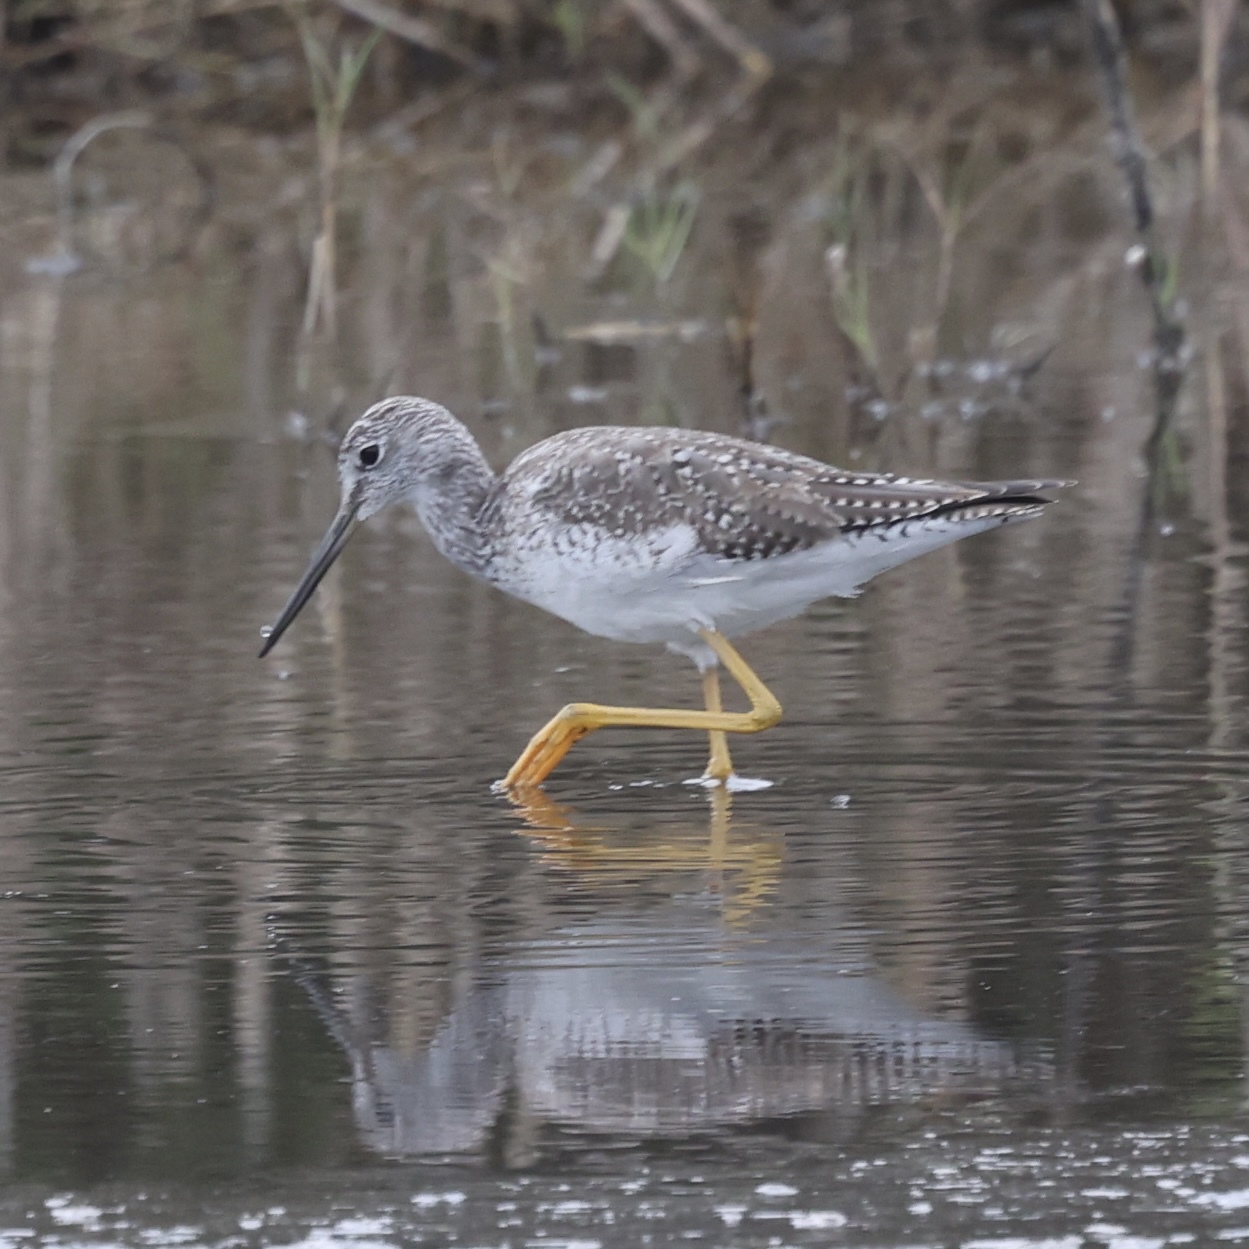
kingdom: Animalia
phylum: Chordata
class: Aves
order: Charadriiformes
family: Scolopacidae
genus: Tringa
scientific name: Tringa melanoleuca
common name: Greater yellowlegs
